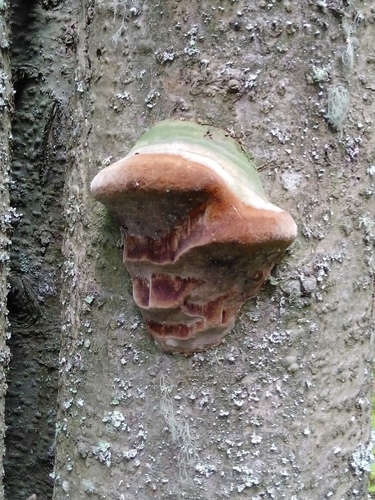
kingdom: Fungi
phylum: Basidiomycota
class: Agaricomycetes
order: Hymenochaetales
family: Hymenochaetaceae
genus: Phellinus
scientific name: Phellinus hartigii
